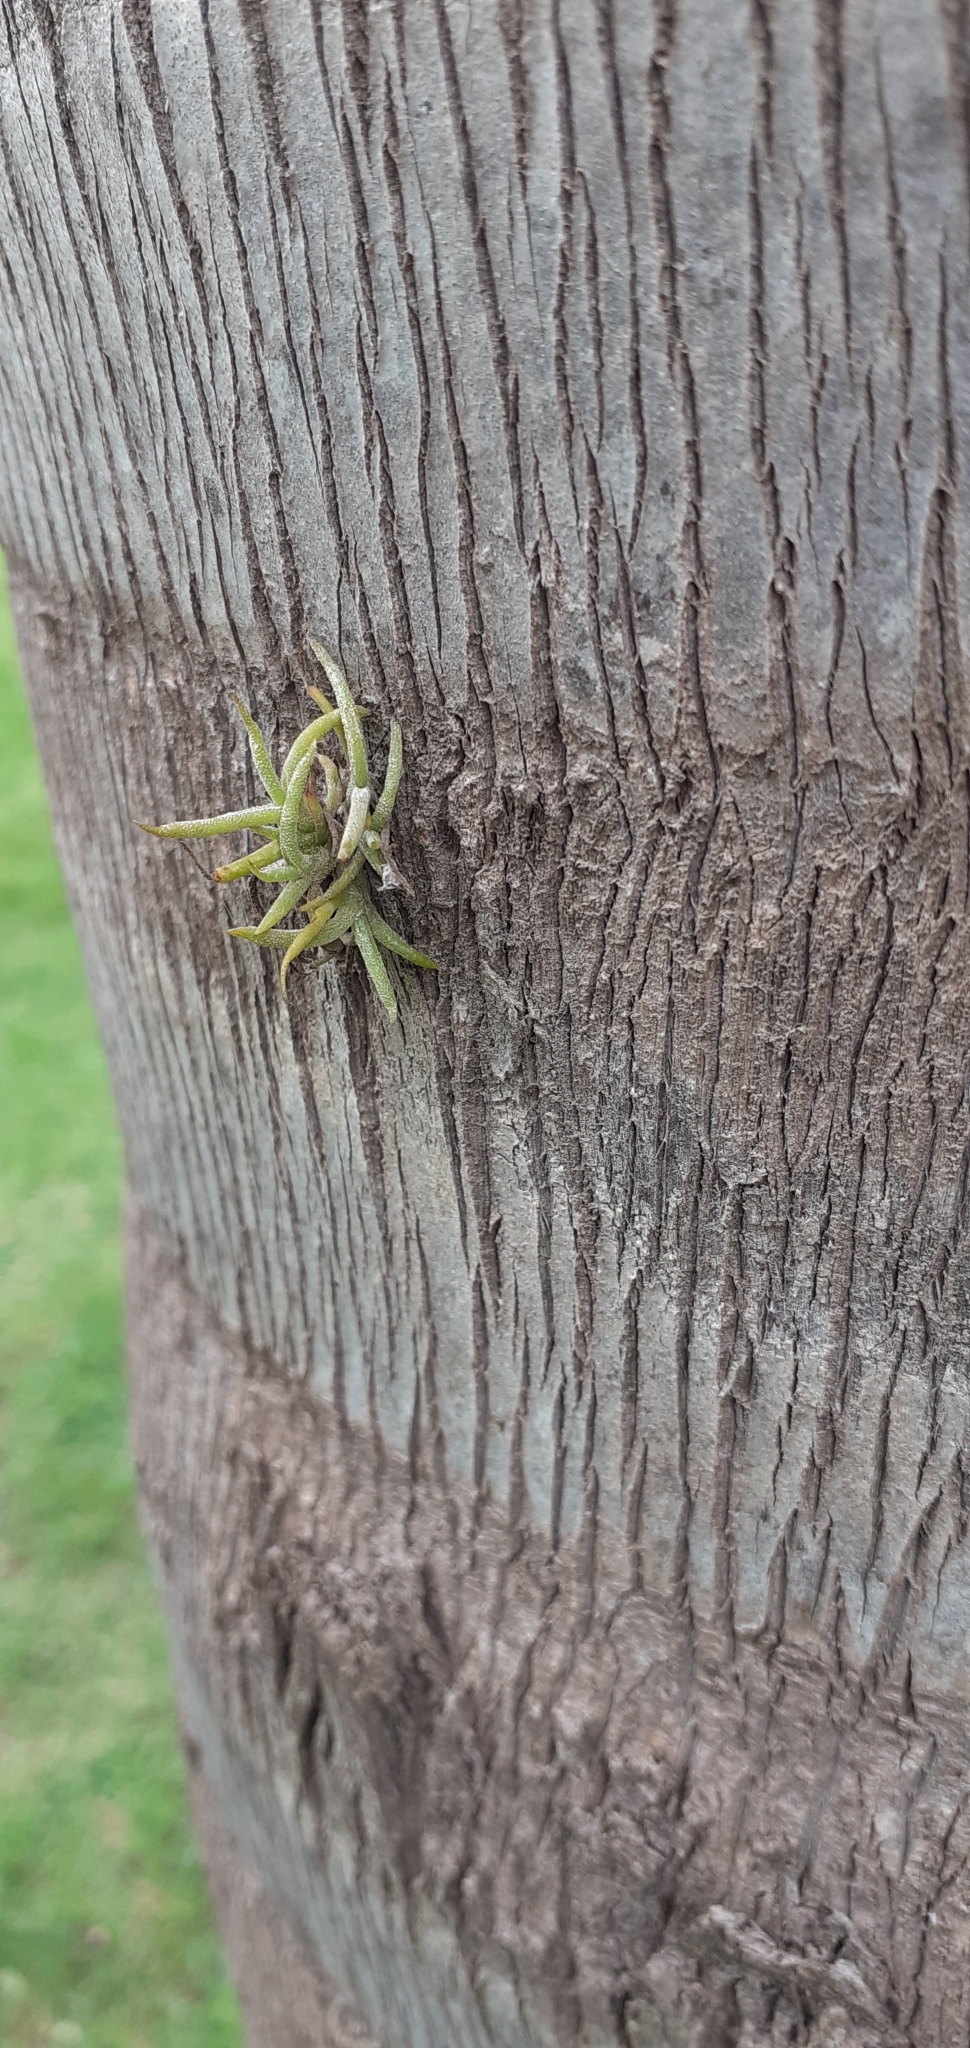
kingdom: Plantae
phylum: Tracheophyta
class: Liliopsida
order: Poales
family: Bromeliaceae
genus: Tillandsia
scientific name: Tillandsia recurvata
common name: Small ballmoss
